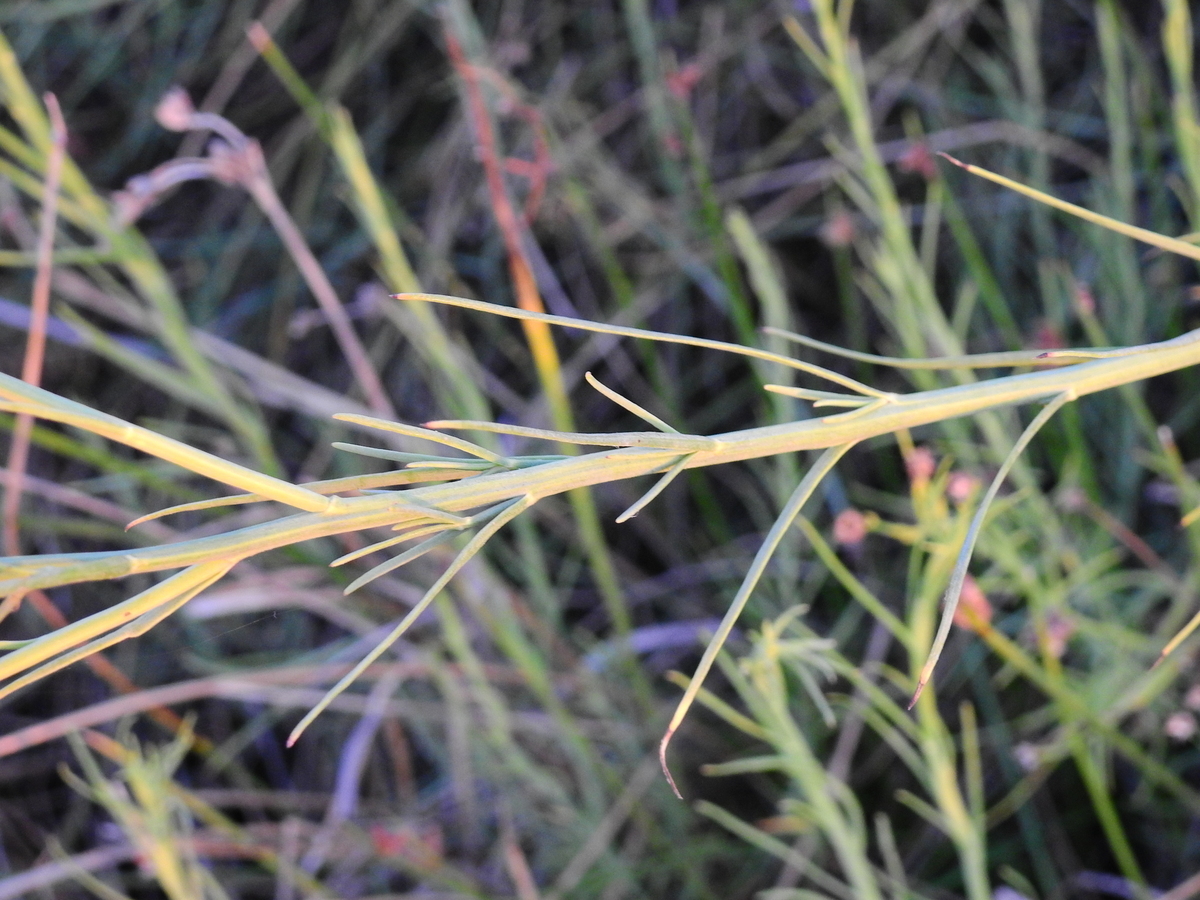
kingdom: Plantae
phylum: Tracheophyta
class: Magnoliopsida
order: Asterales
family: Asteraceae
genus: Baccharis
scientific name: Baccharis juncea
